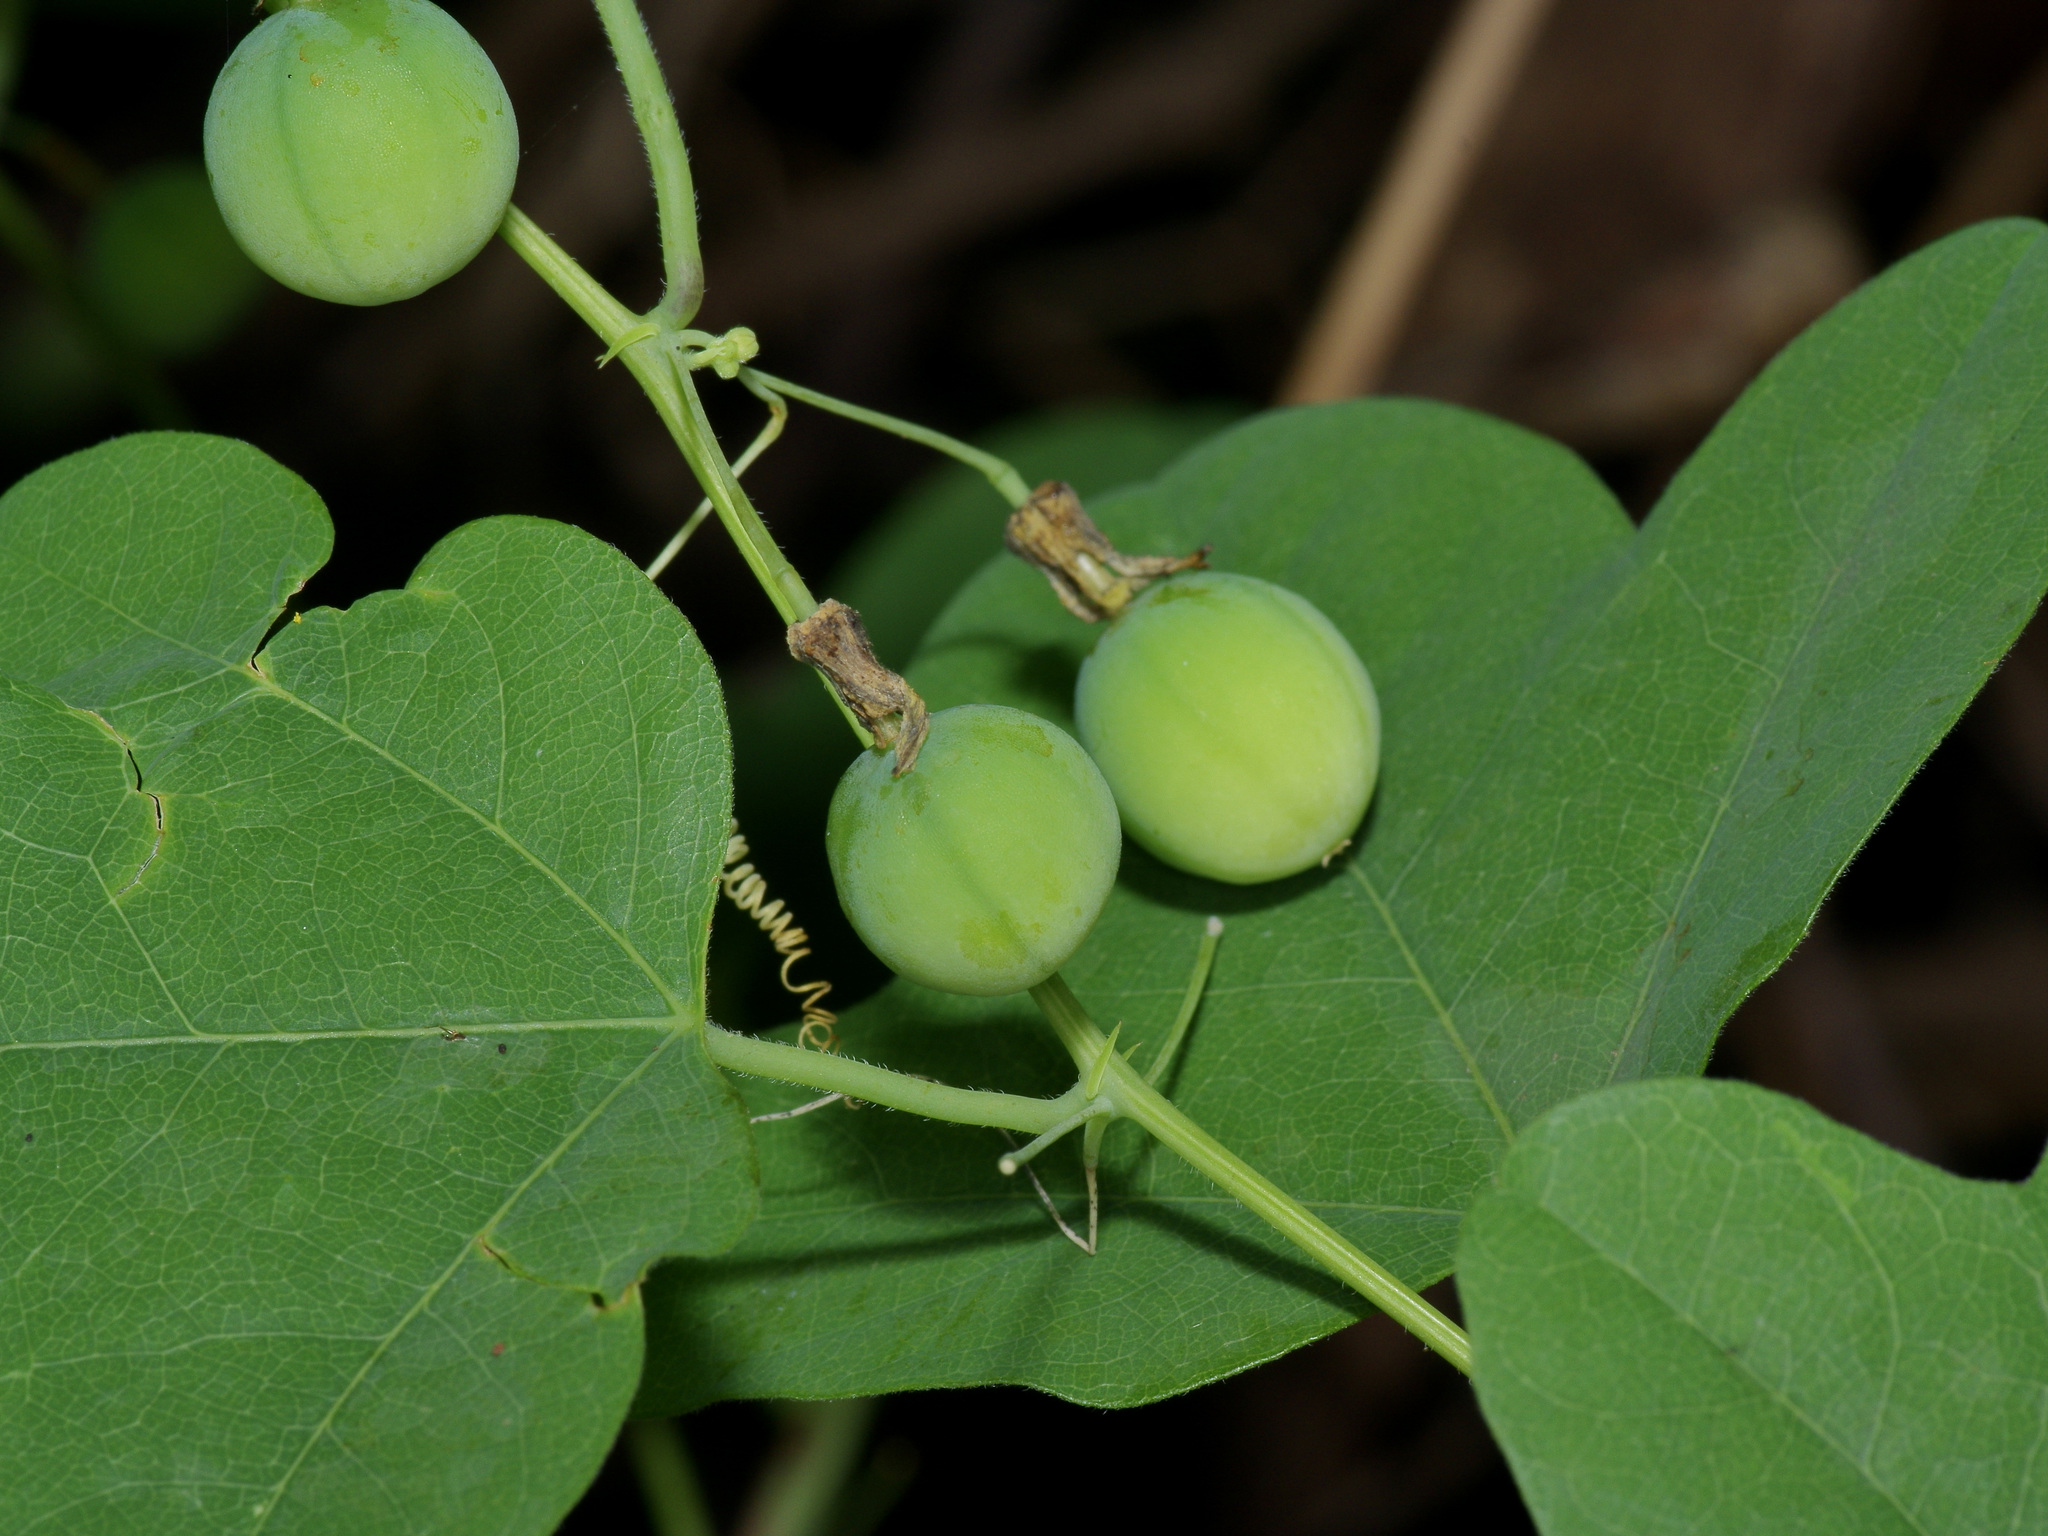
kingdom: Plantae
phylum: Tracheophyta
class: Magnoliopsida
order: Malpighiales
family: Passifloraceae
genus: Passiflora
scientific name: Passiflora lutea
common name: Yellow passionflower
